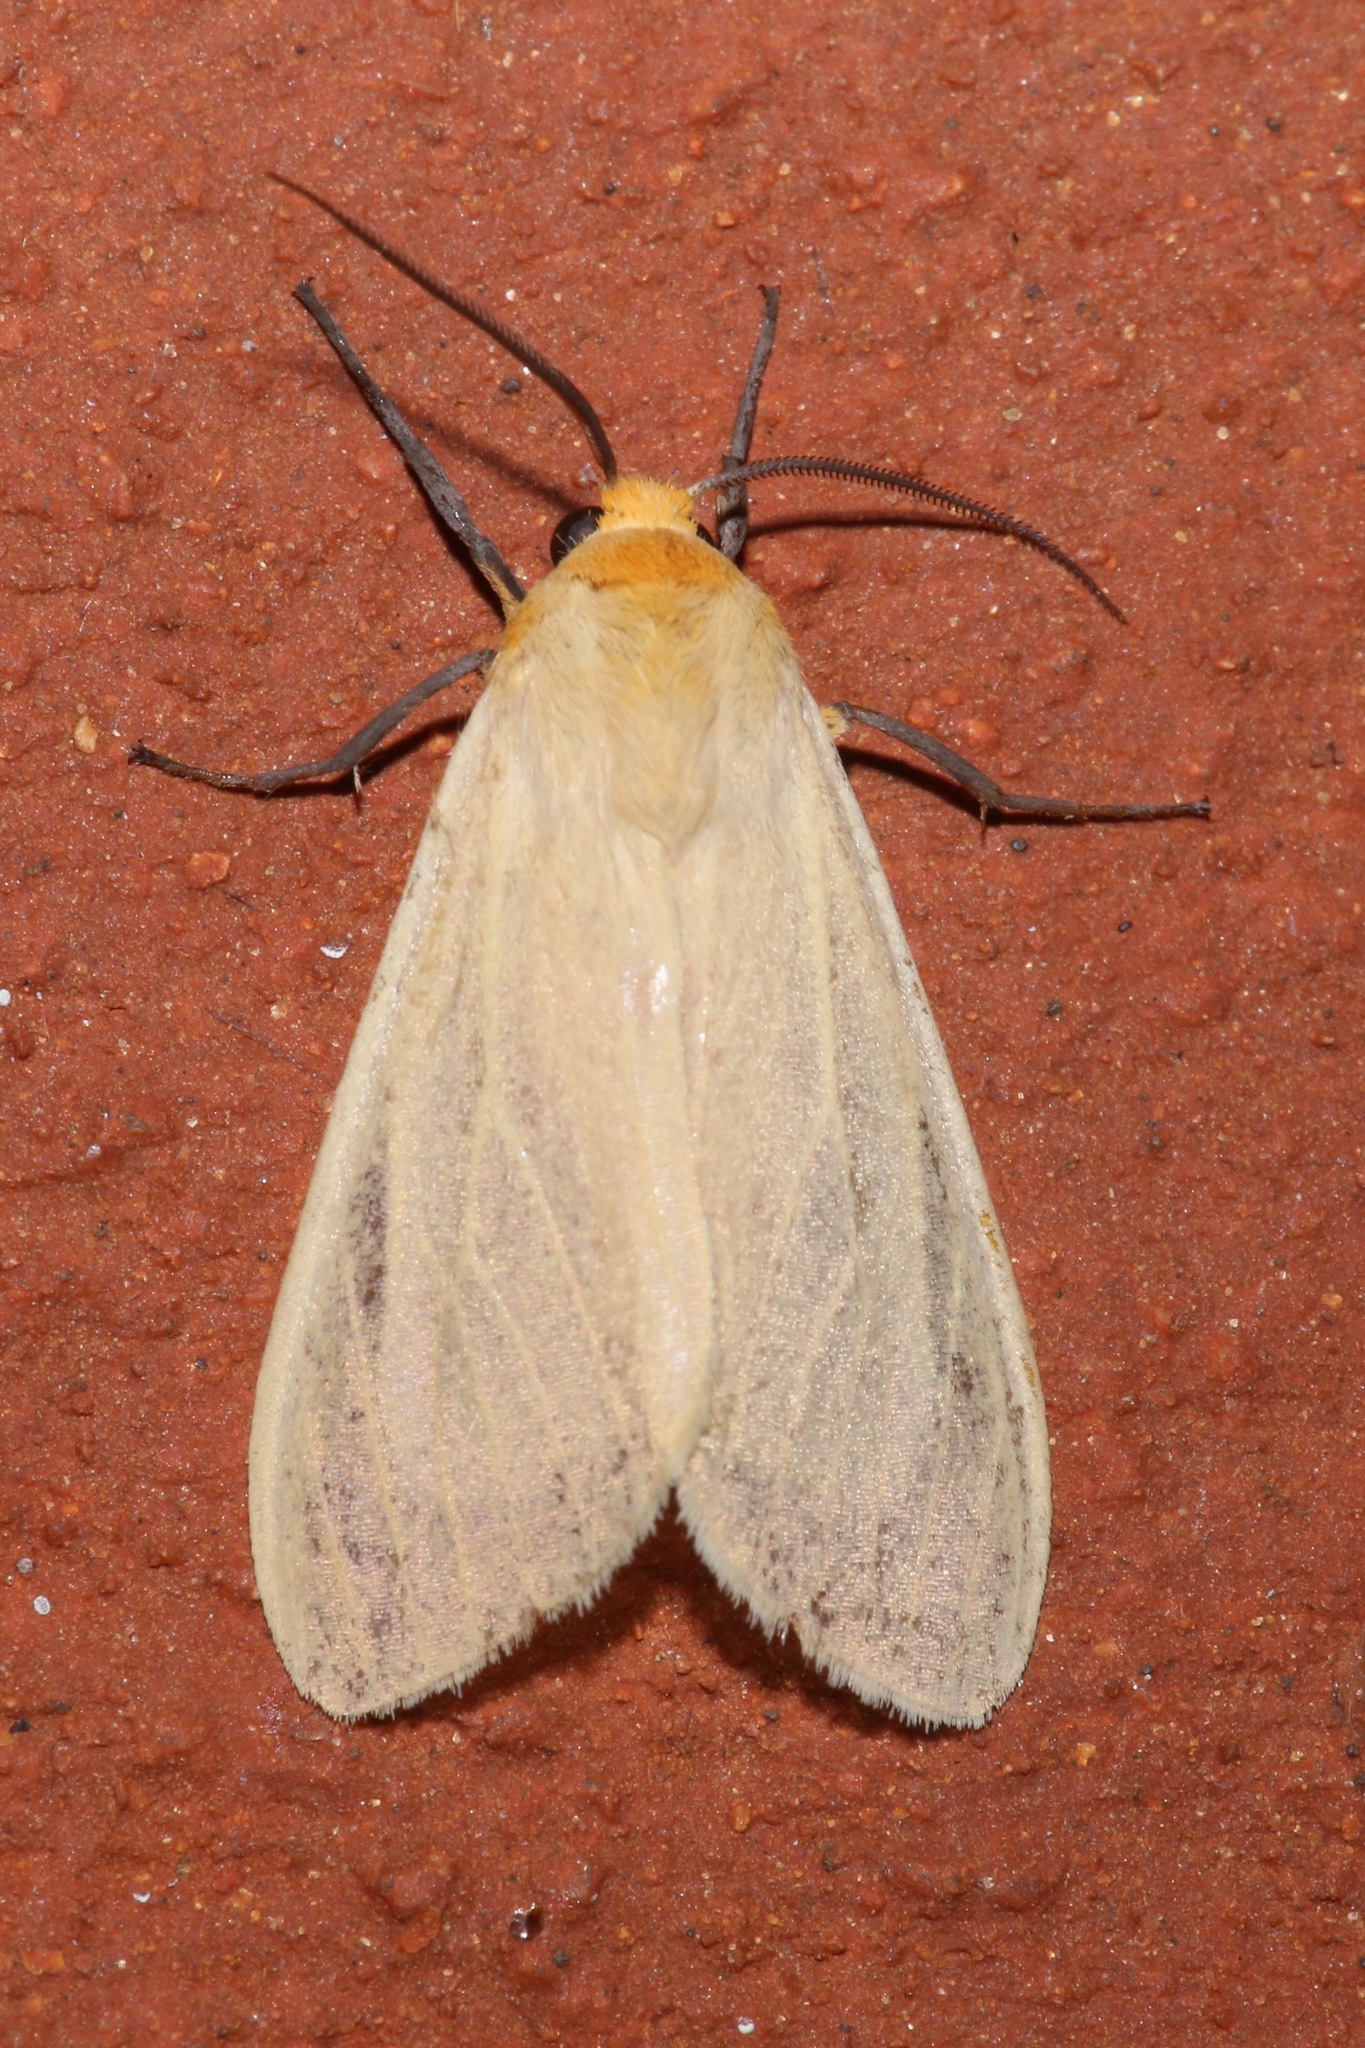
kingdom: Animalia
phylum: Arthropoda
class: Insecta
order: Lepidoptera
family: Erebidae
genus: Pareuchaetes
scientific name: Pareuchaetes insulata
